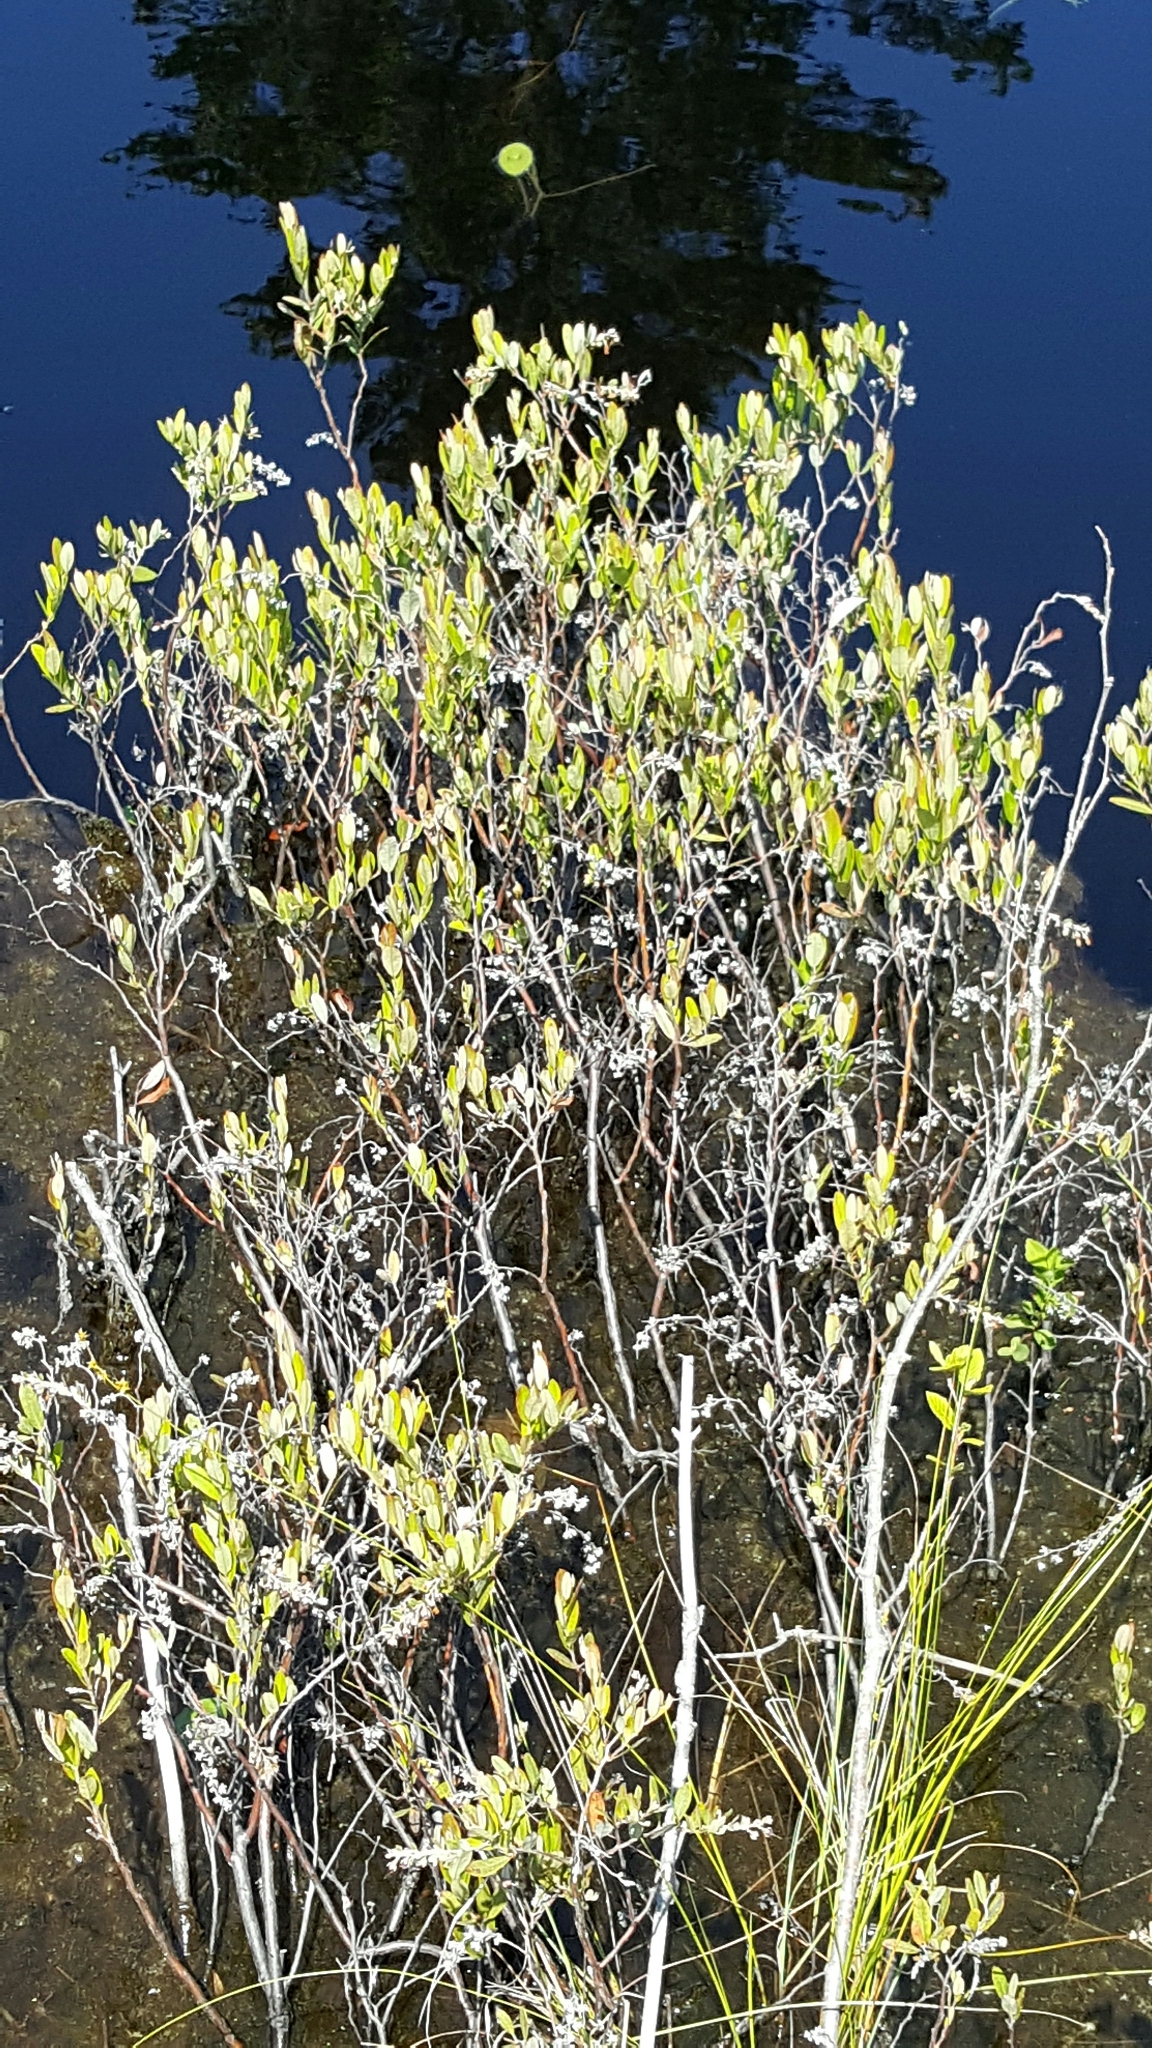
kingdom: Plantae
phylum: Tracheophyta
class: Magnoliopsida
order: Ericales
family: Ericaceae
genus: Chamaedaphne
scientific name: Chamaedaphne calyculata
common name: Leatherleaf
